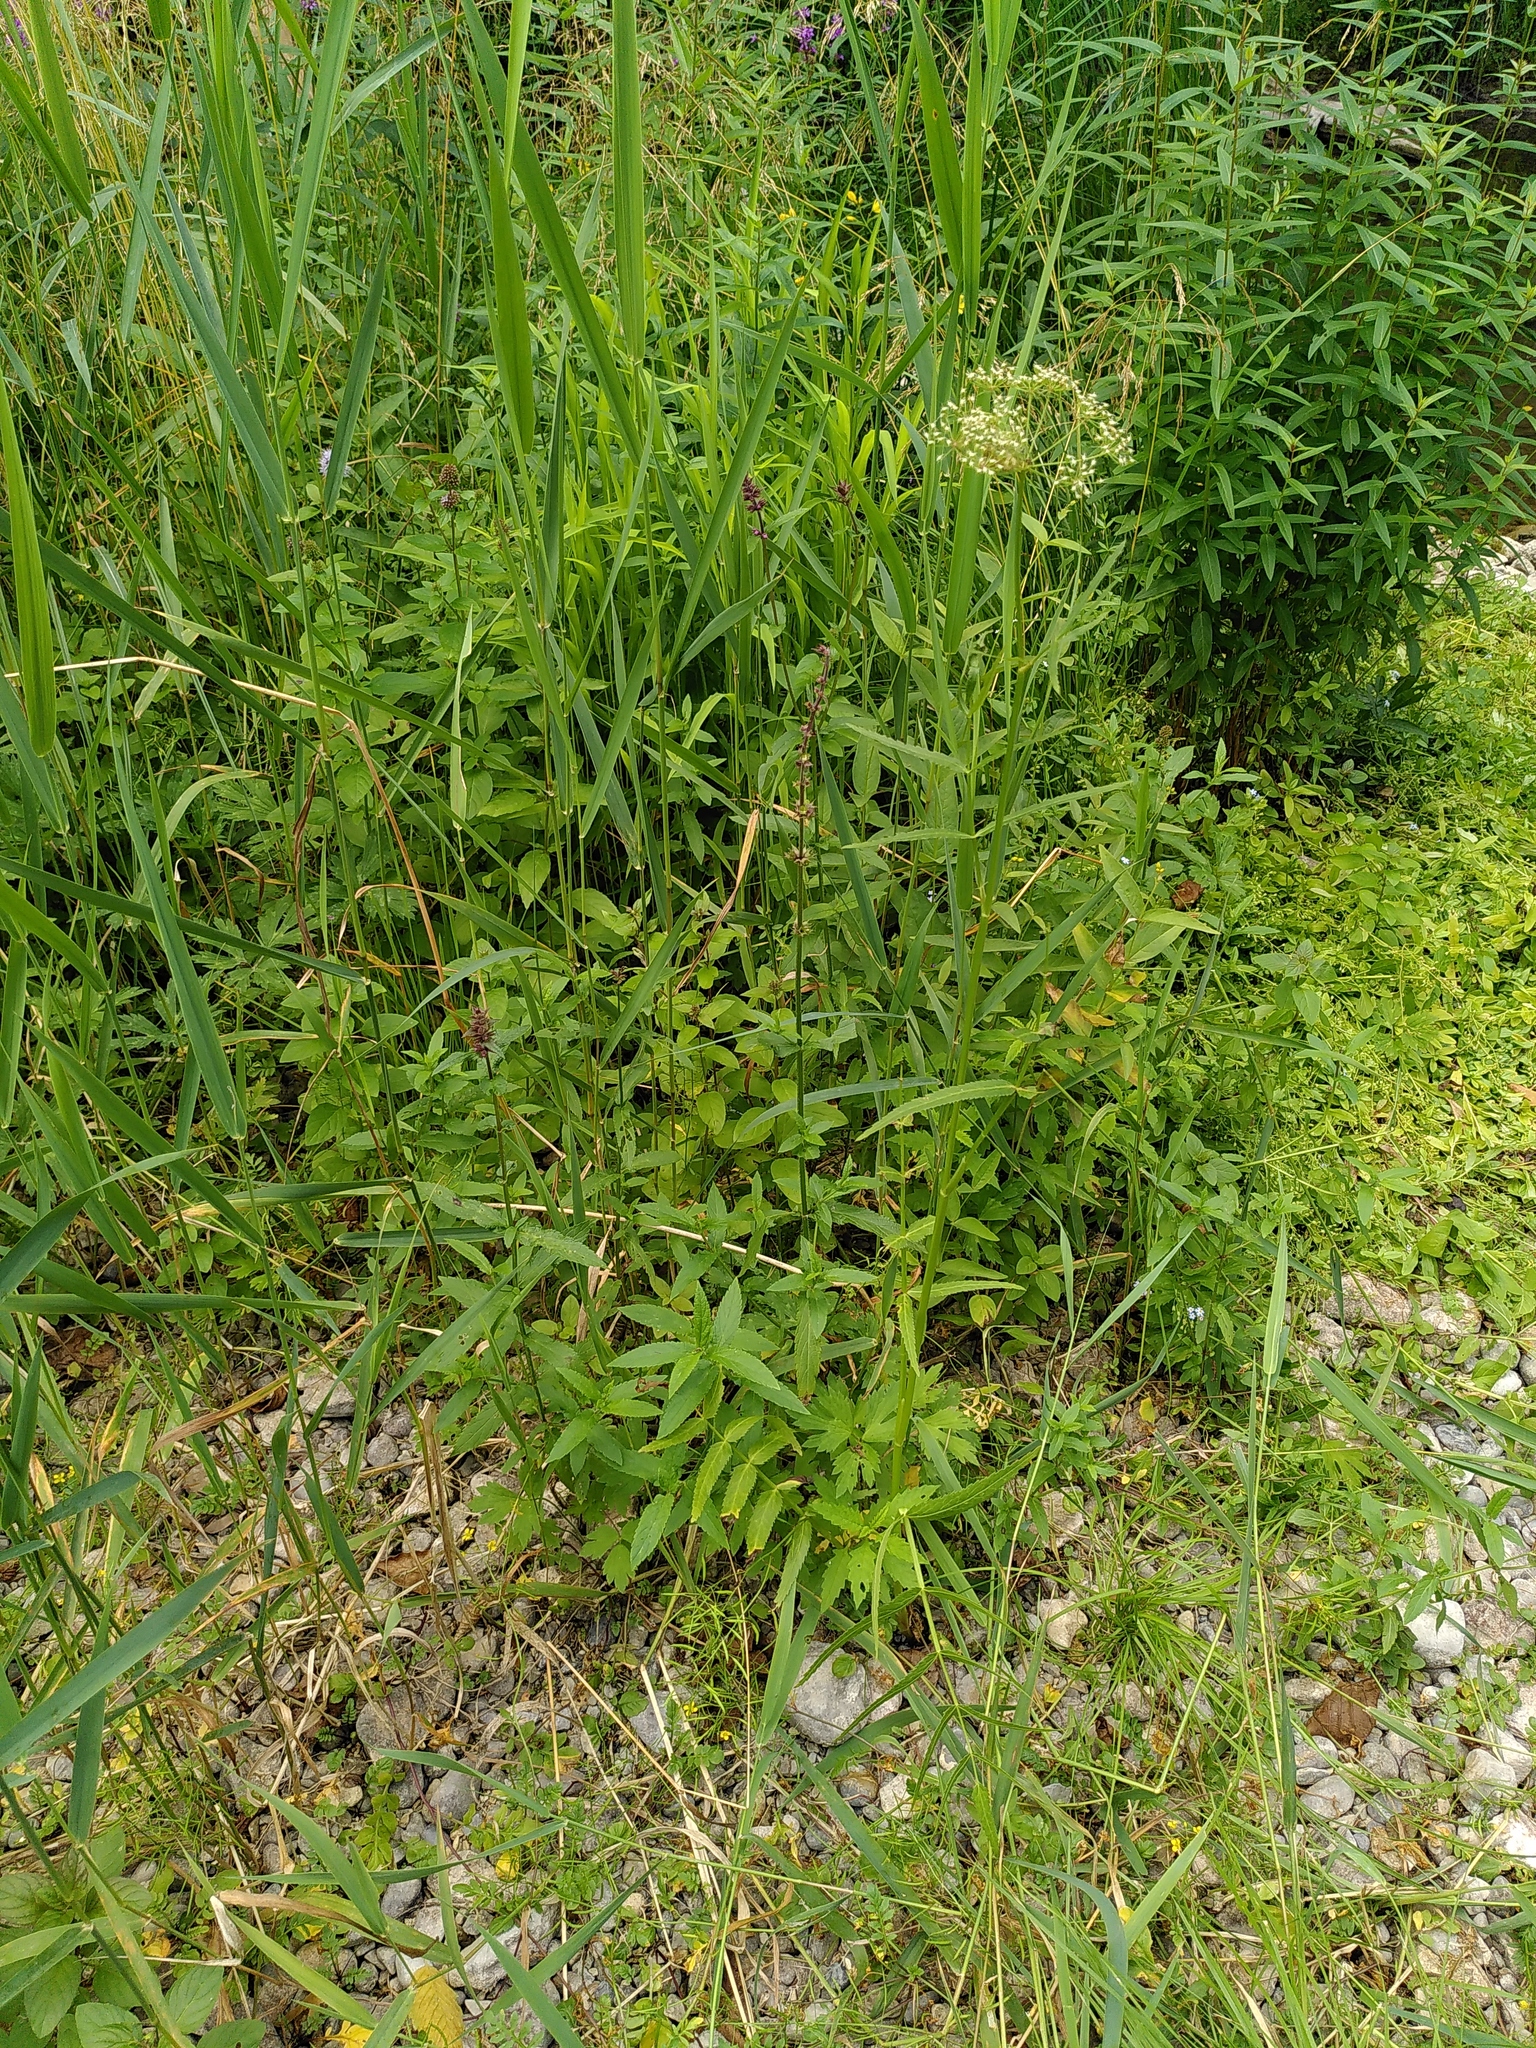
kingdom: Plantae
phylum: Tracheophyta
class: Magnoliopsida
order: Apiales
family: Apiaceae
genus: Sium
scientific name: Sium latifolium
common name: Greater water-parsnip
